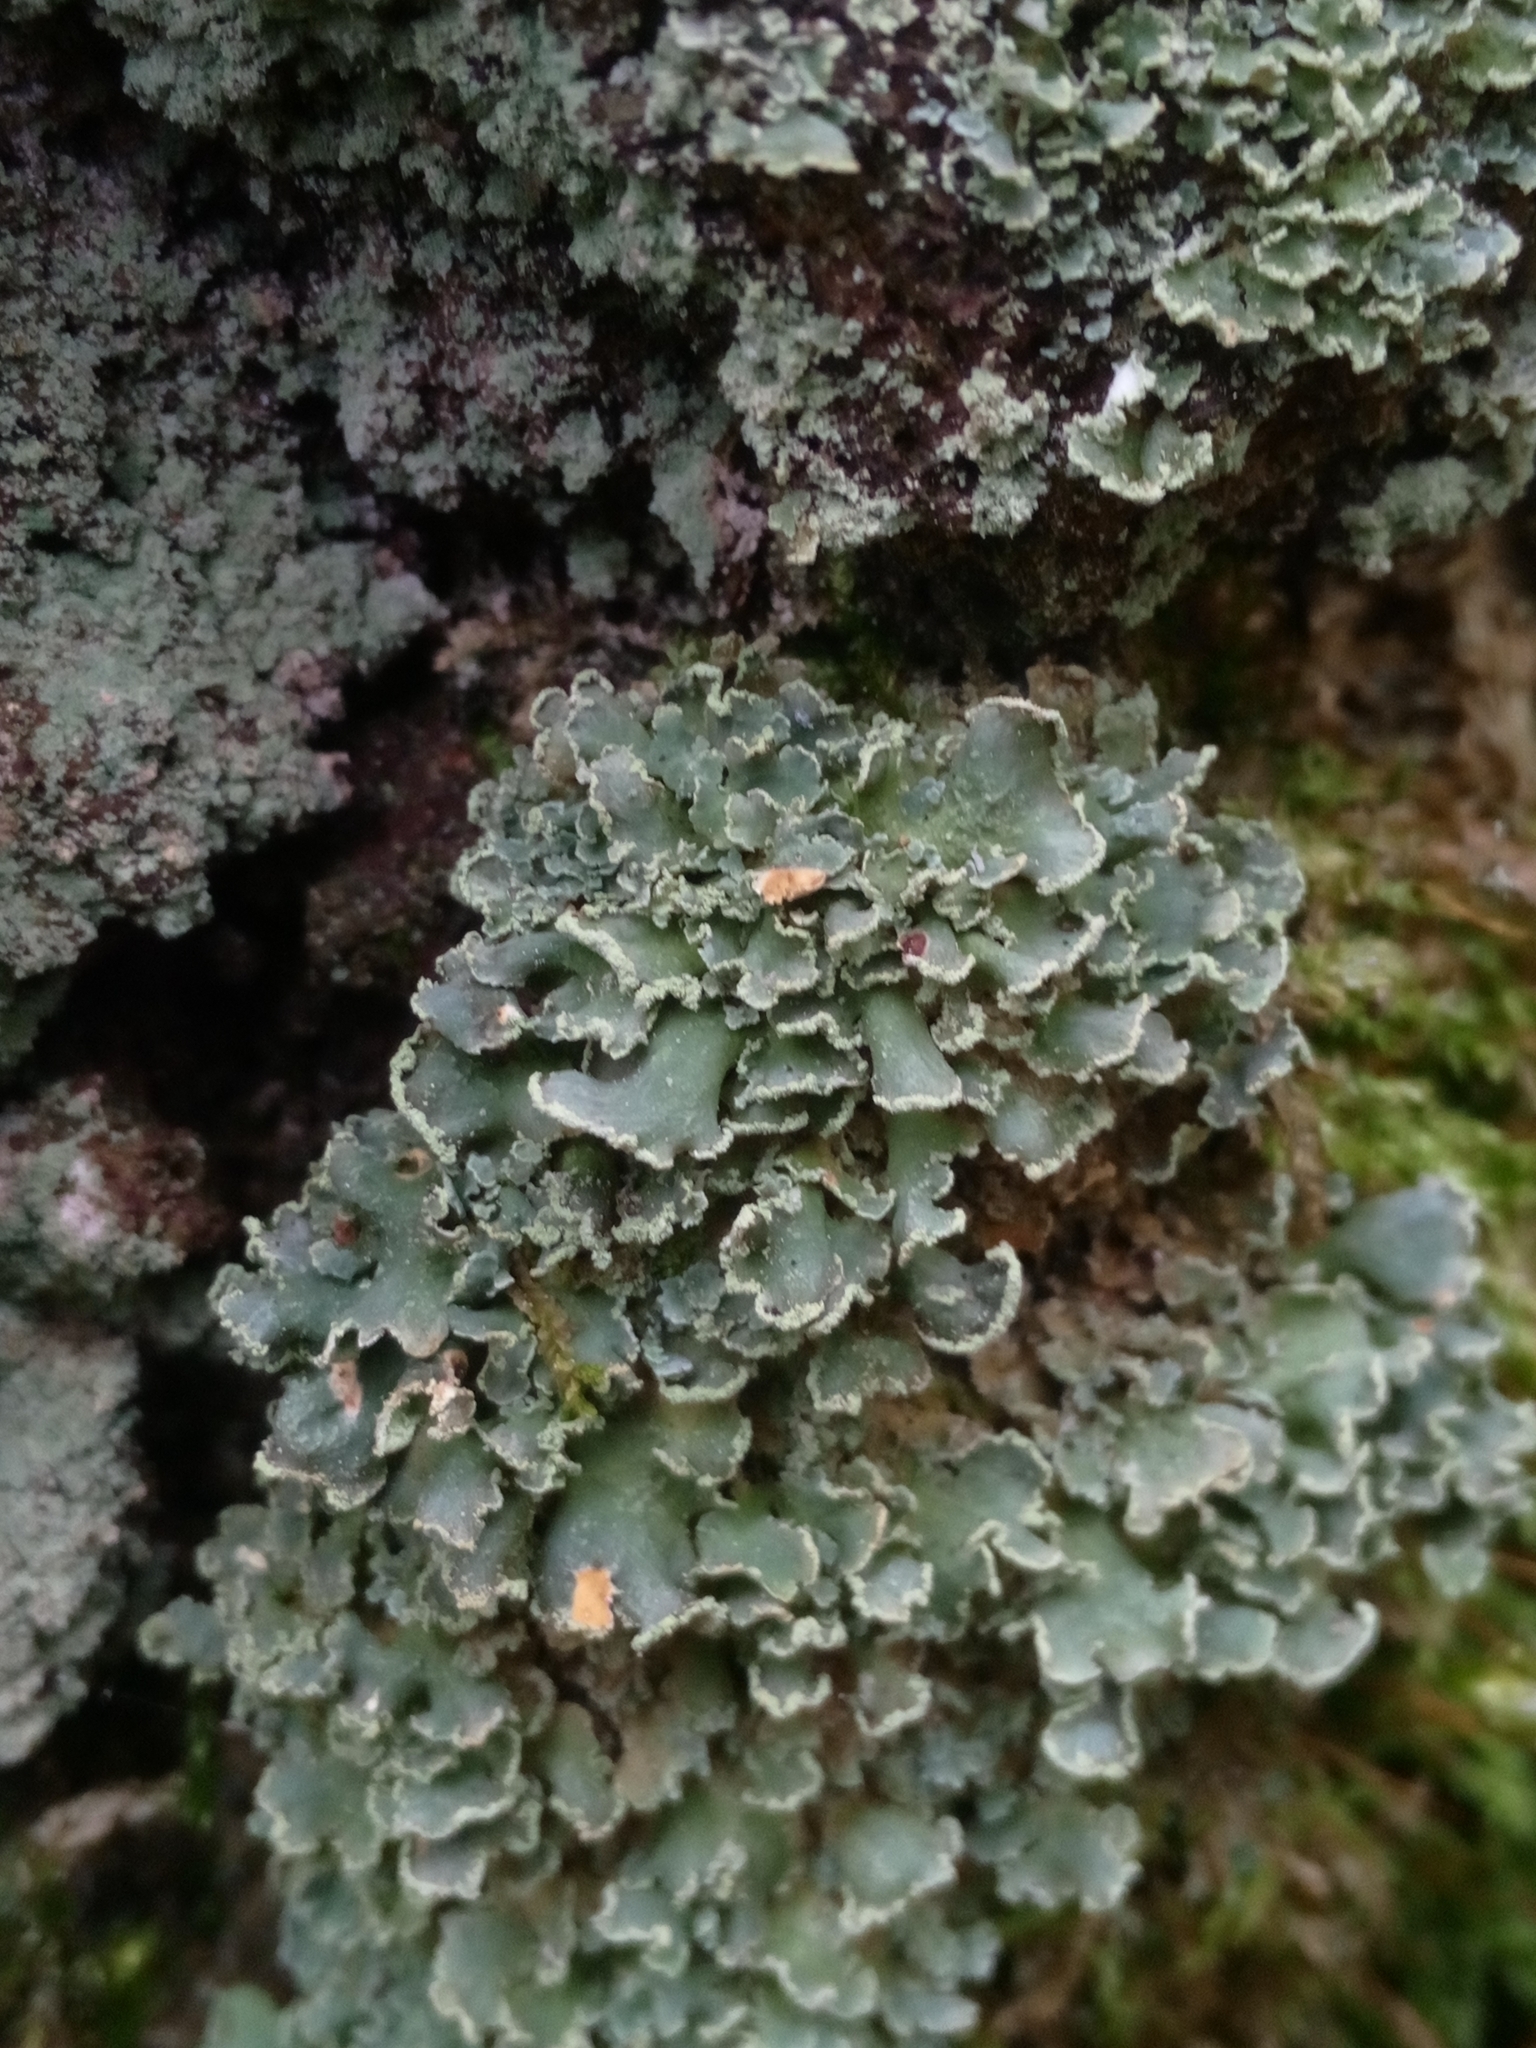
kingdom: Fungi
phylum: Ascomycota
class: Lecanoromycetes
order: Lecanorales
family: Cladoniaceae
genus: Cladonia
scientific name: Cladonia digitata
